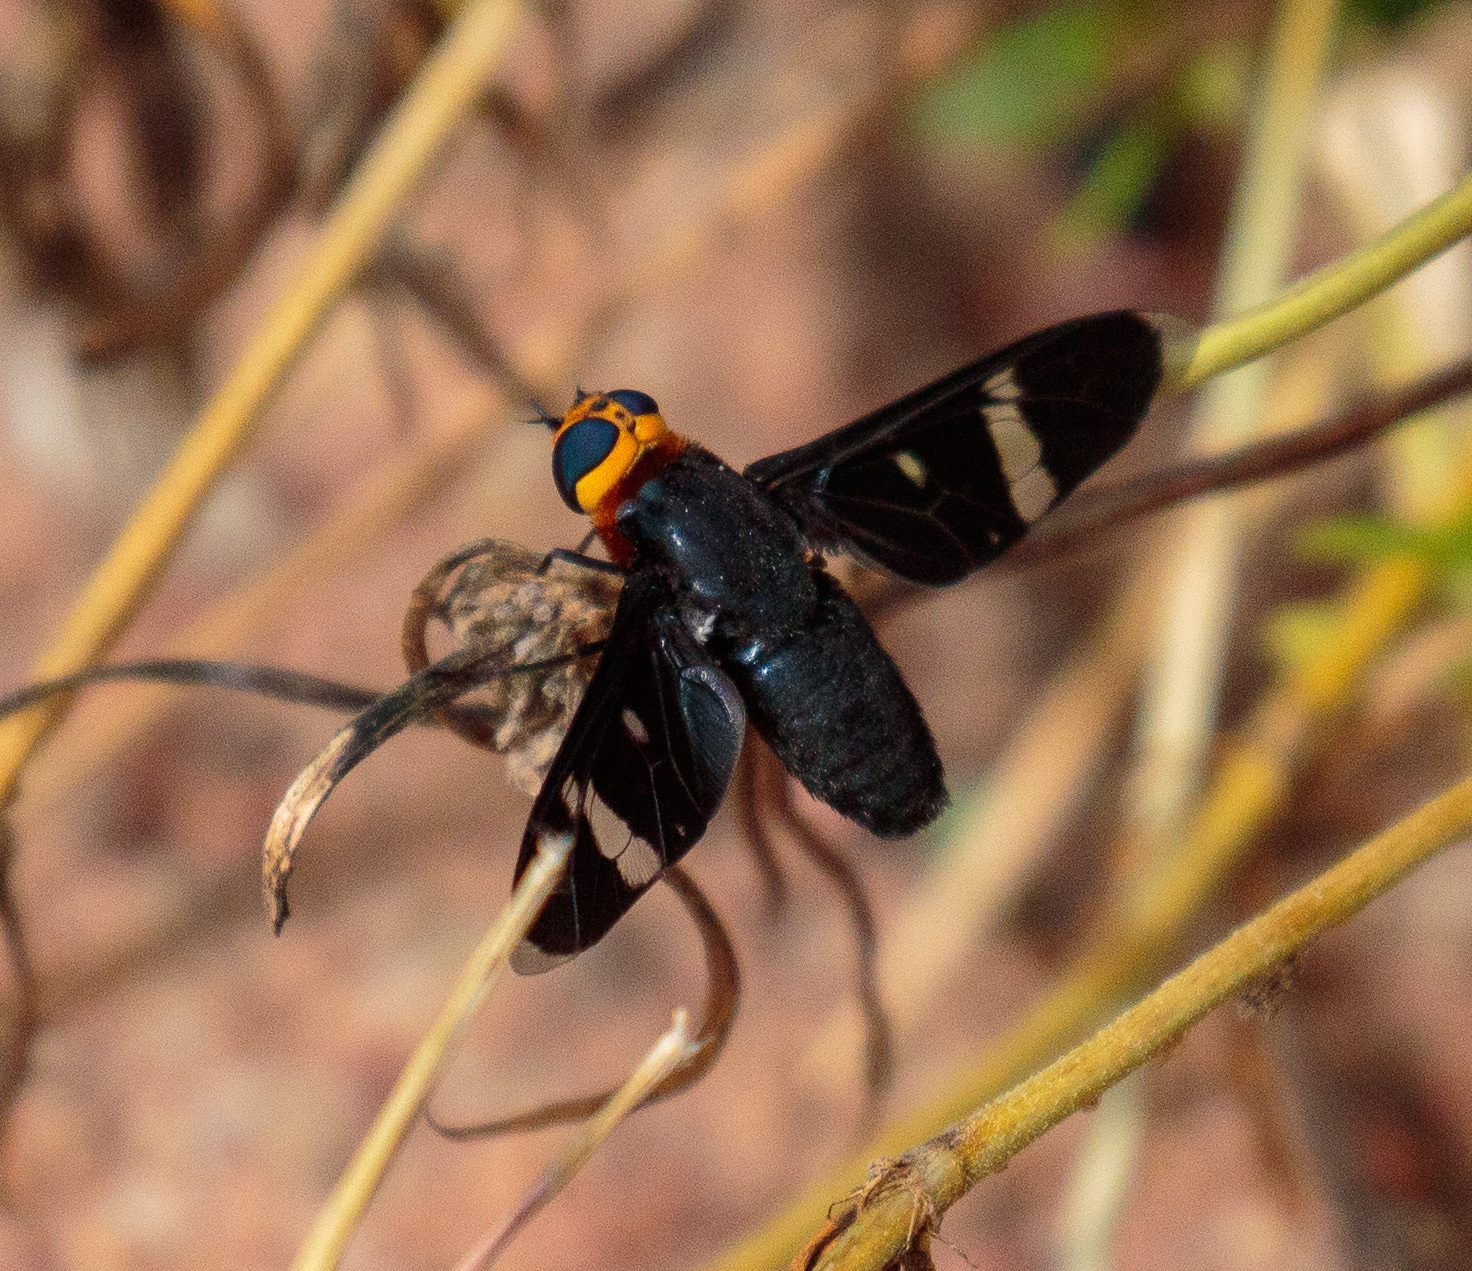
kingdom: Animalia
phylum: Arthropoda
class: Insecta
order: Diptera
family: Bombyliidae
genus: Hyperalonia
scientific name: Hyperalonia morio
